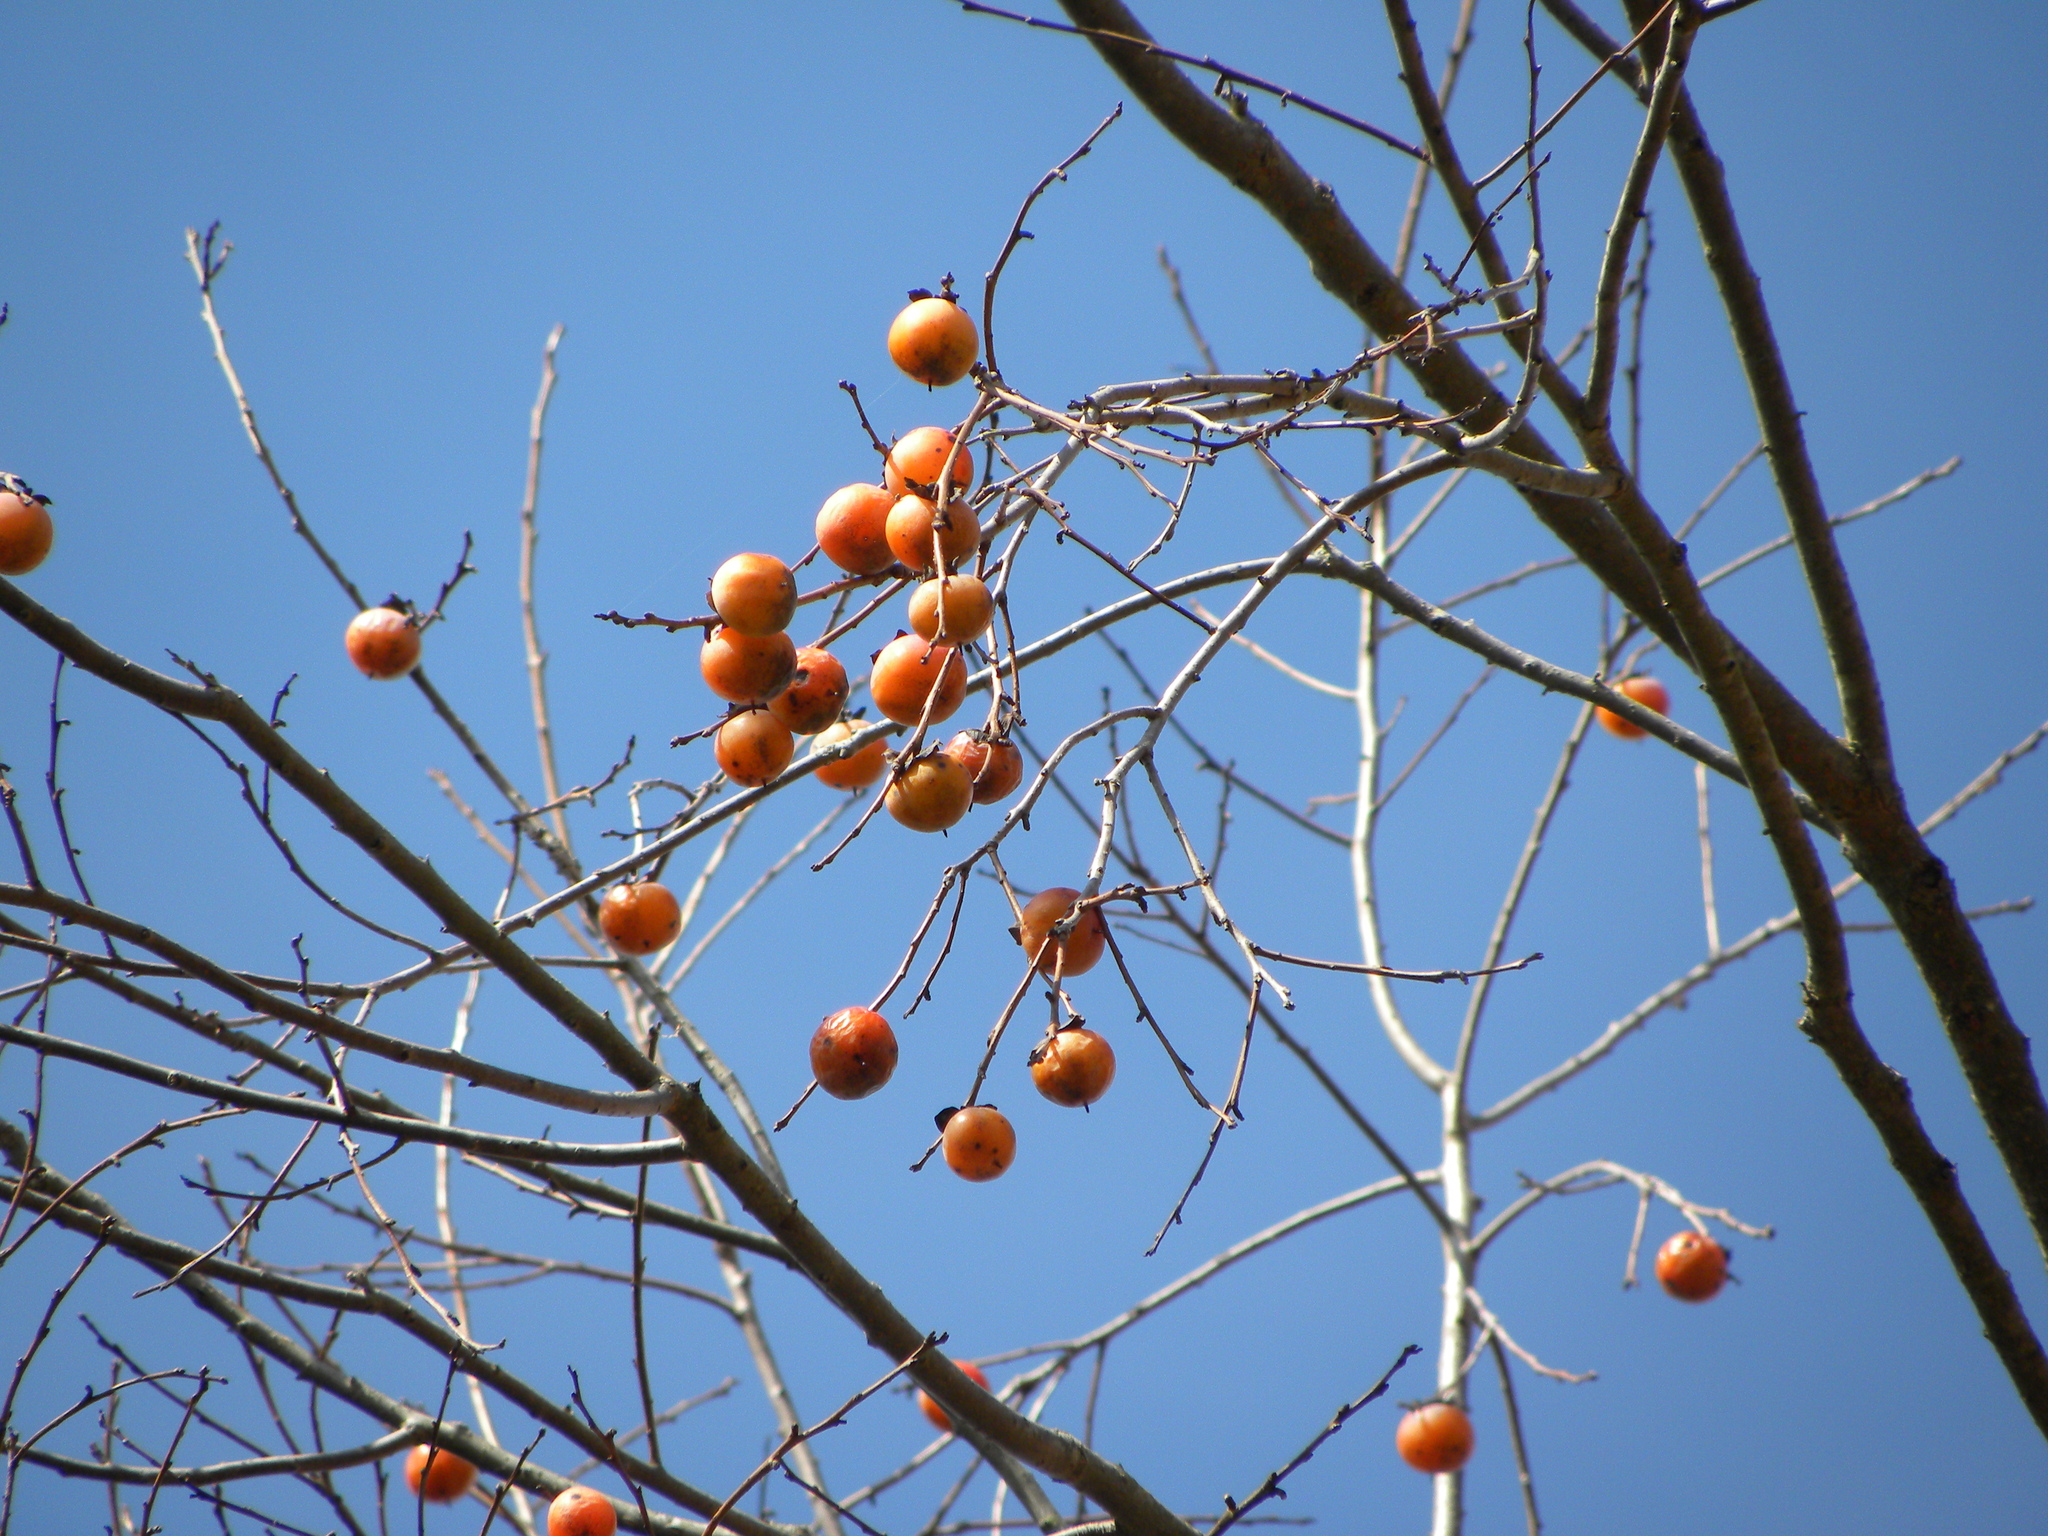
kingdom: Plantae
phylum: Tracheophyta
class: Magnoliopsida
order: Ericales
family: Ebenaceae
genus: Diospyros
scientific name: Diospyros virginiana
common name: Persimmon
